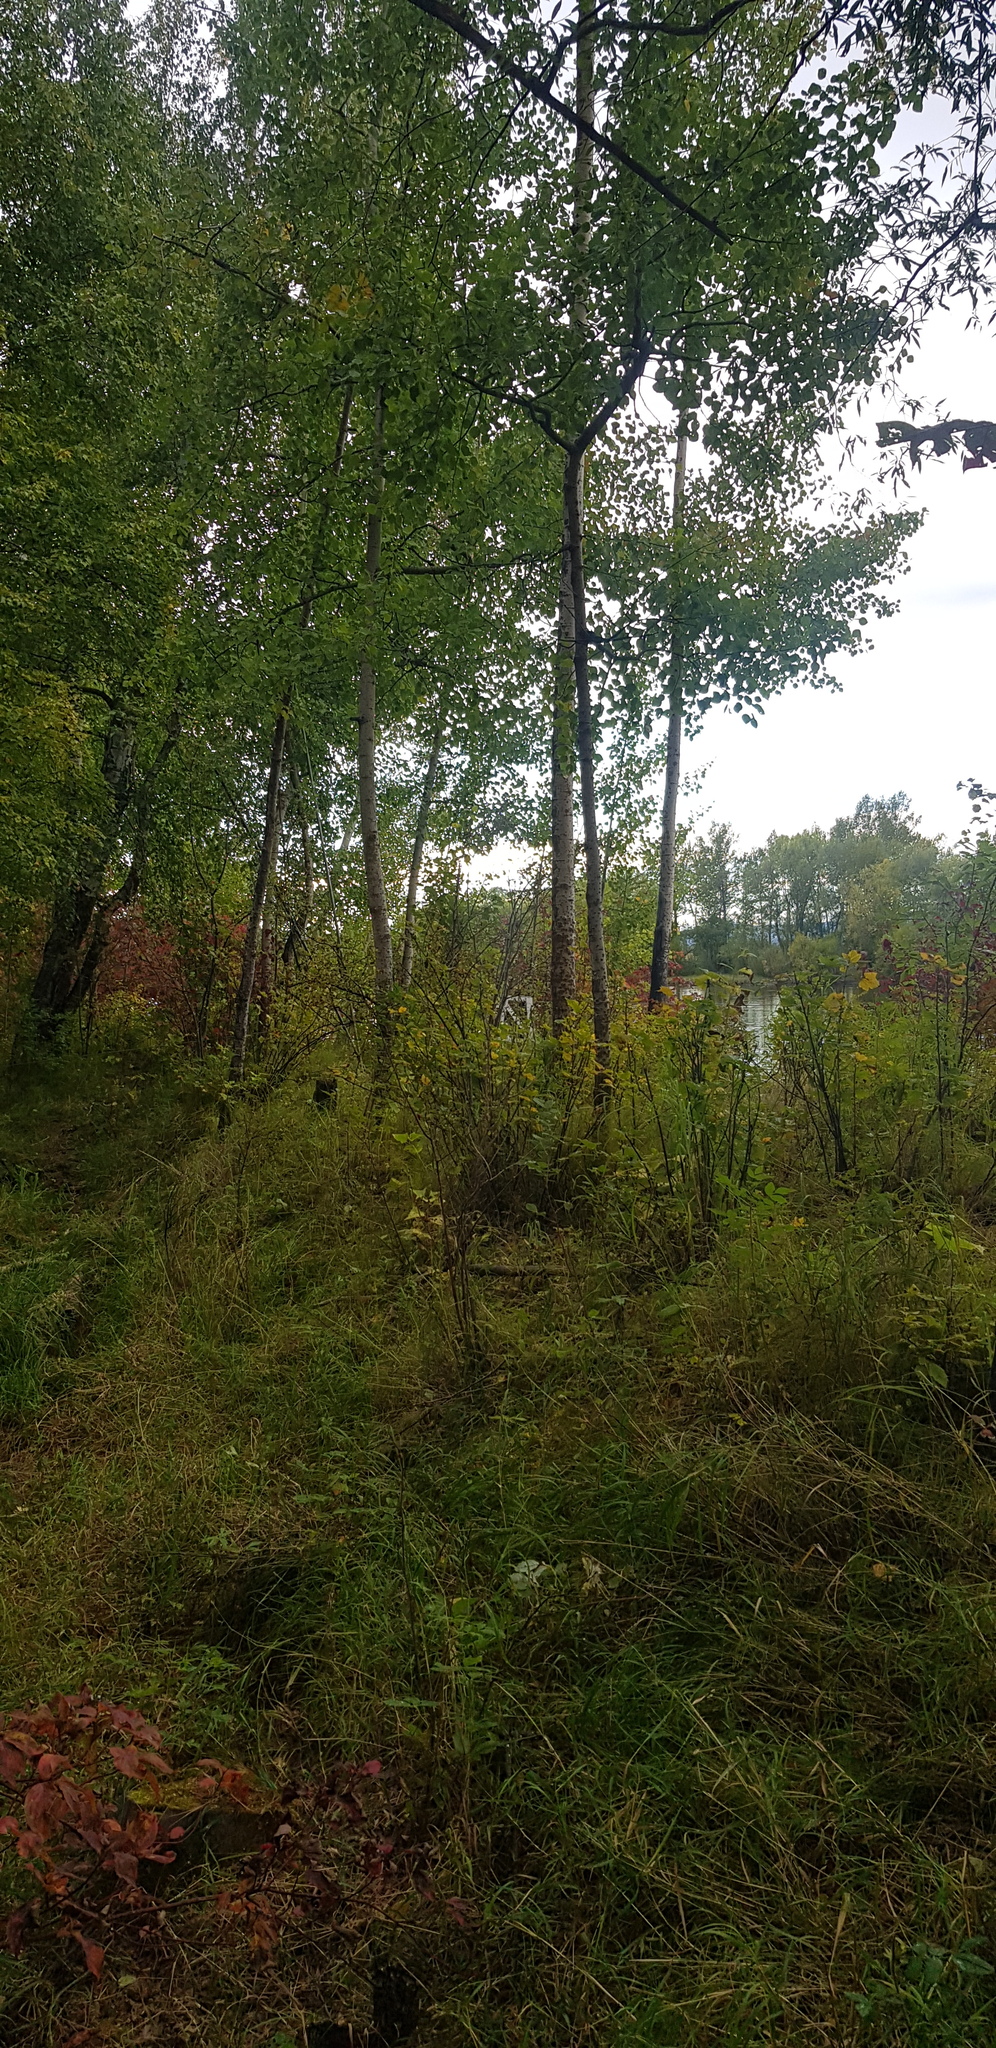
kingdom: Plantae
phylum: Tracheophyta
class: Magnoliopsida
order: Malpighiales
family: Salicaceae
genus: Populus
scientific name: Populus tremula
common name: European aspen
